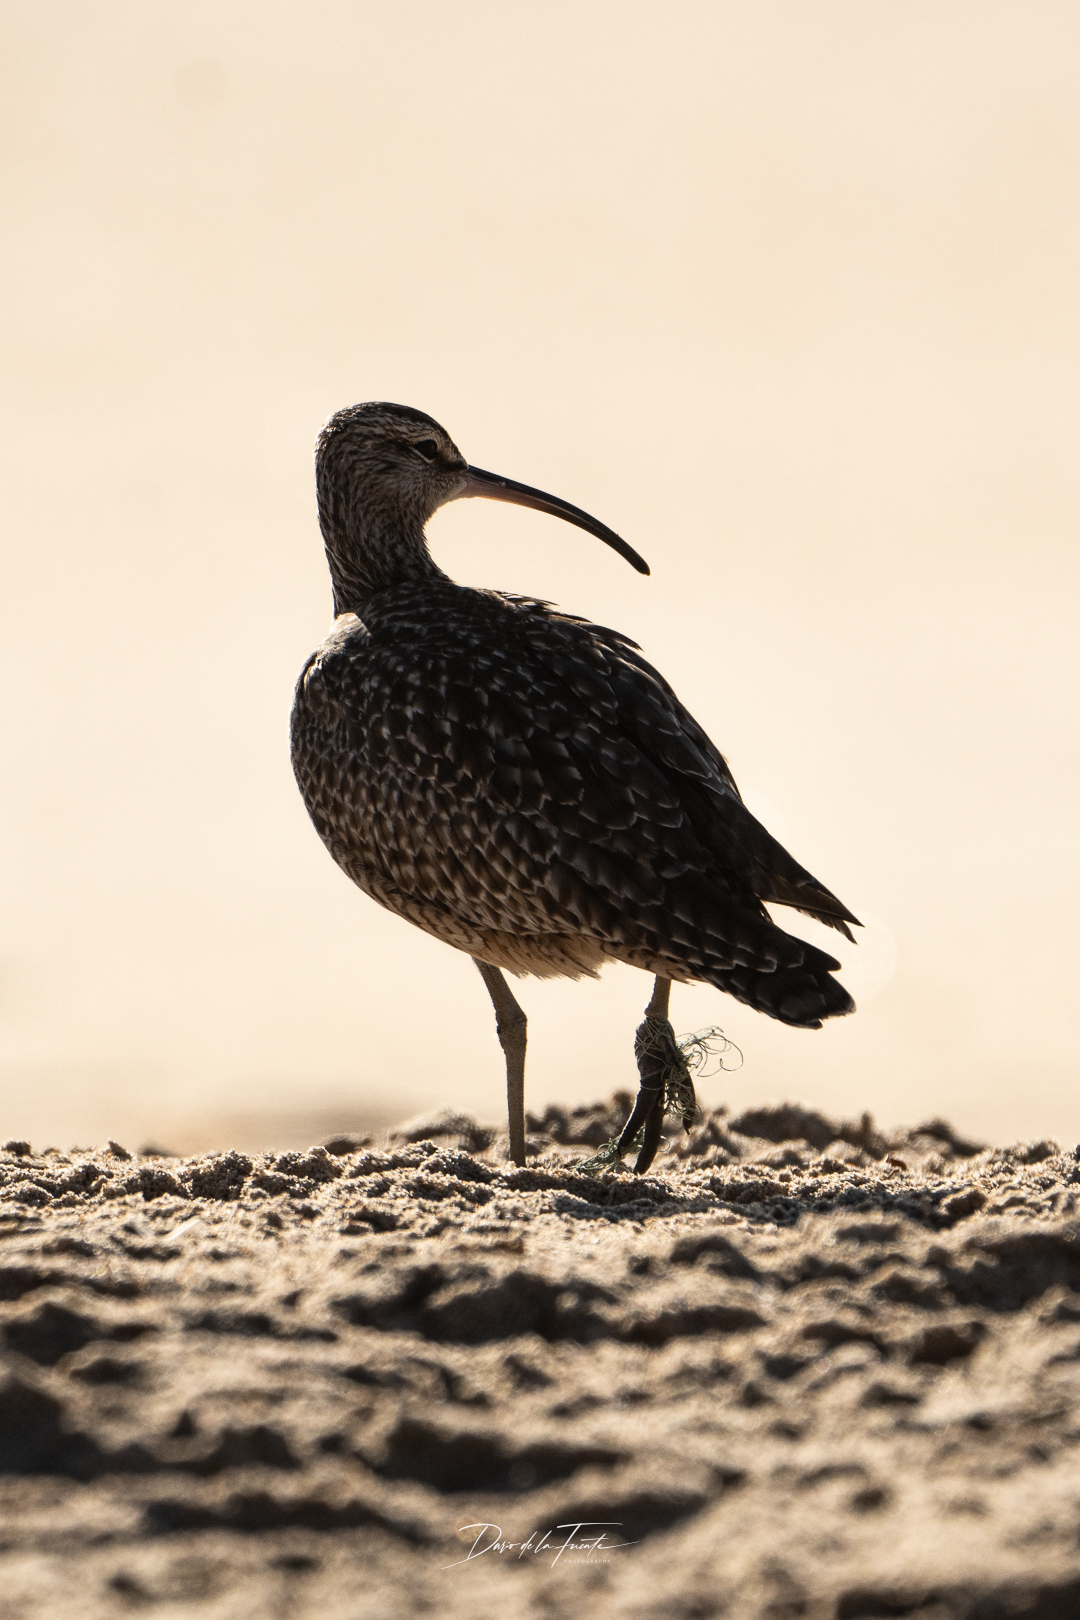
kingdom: Animalia
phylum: Chordata
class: Aves
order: Charadriiformes
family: Scolopacidae
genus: Numenius
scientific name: Numenius phaeopus
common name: Whimbrel
